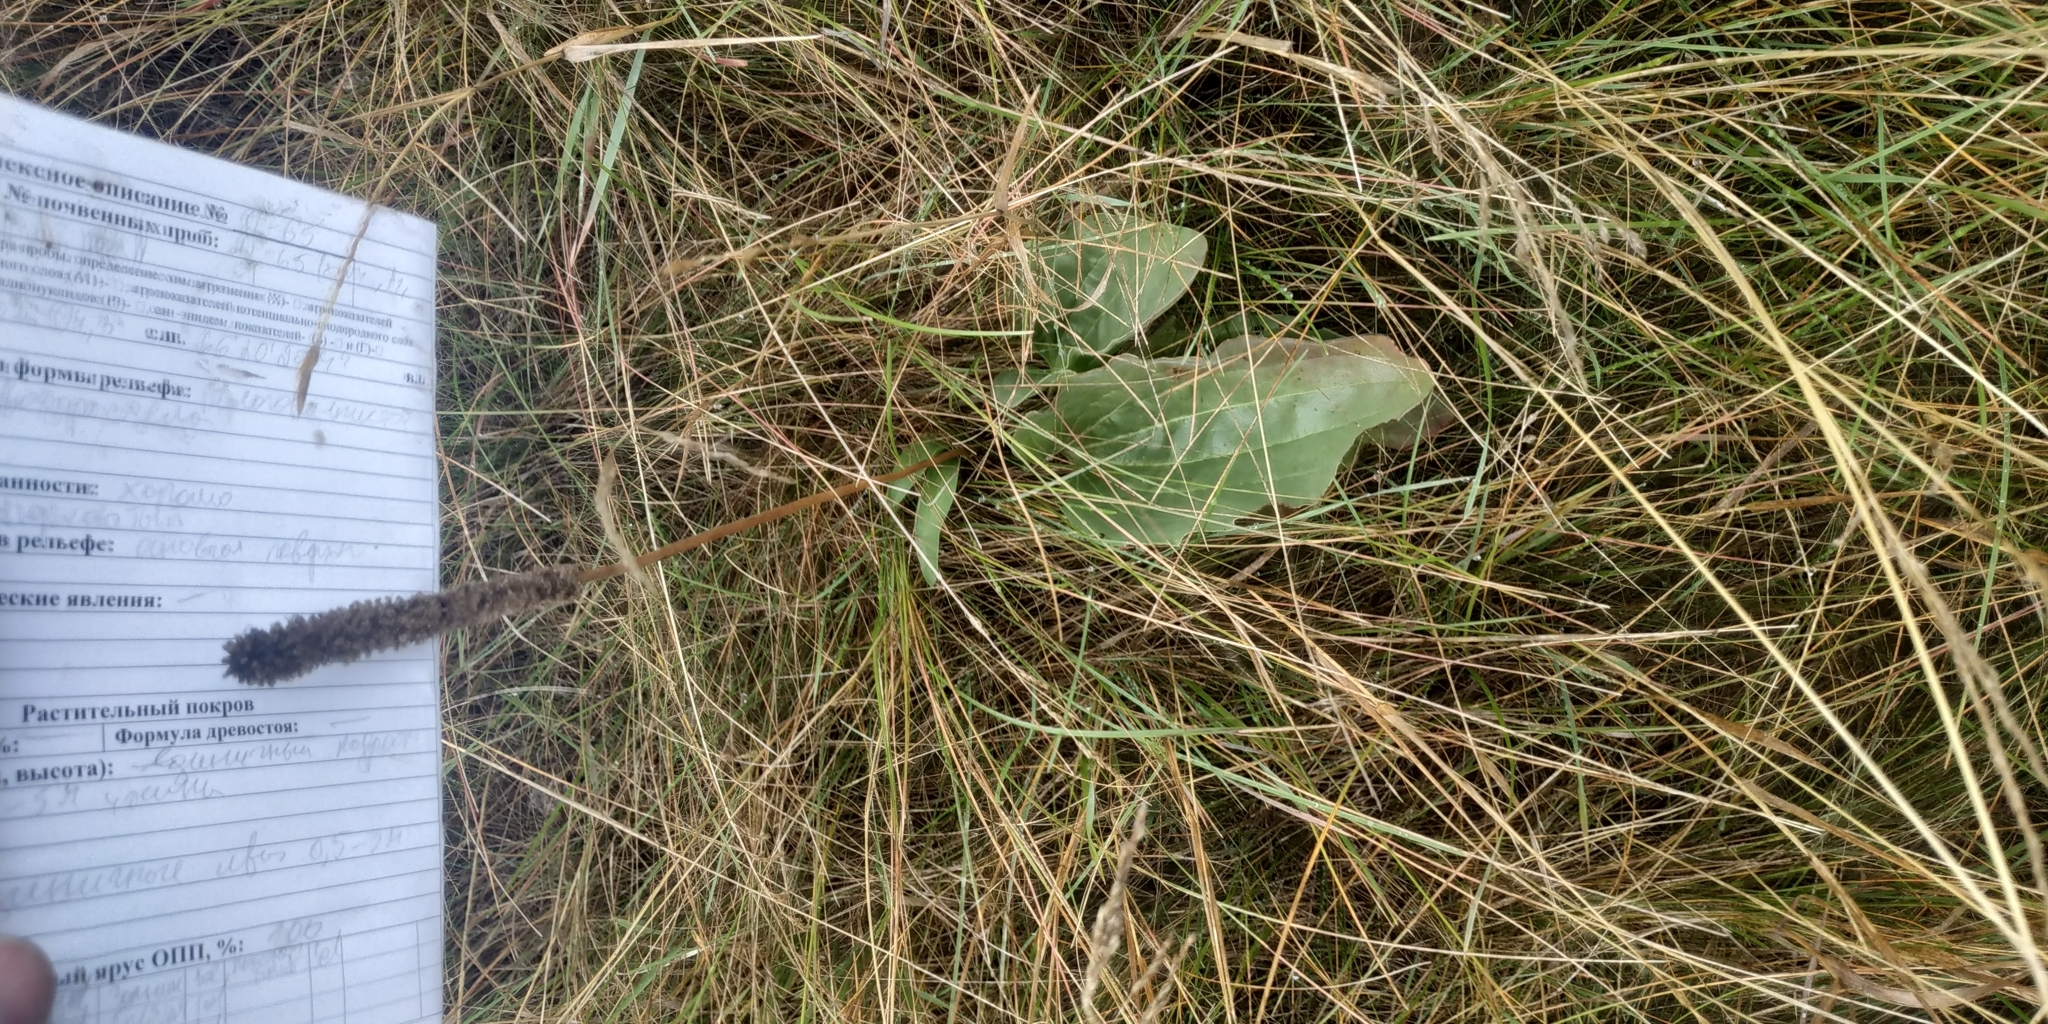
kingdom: Plantae
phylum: Tracheophyta
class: Magnoliopsida
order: Lamiales
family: Plantaginaceae
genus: Plantago
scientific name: Plantago maxima
